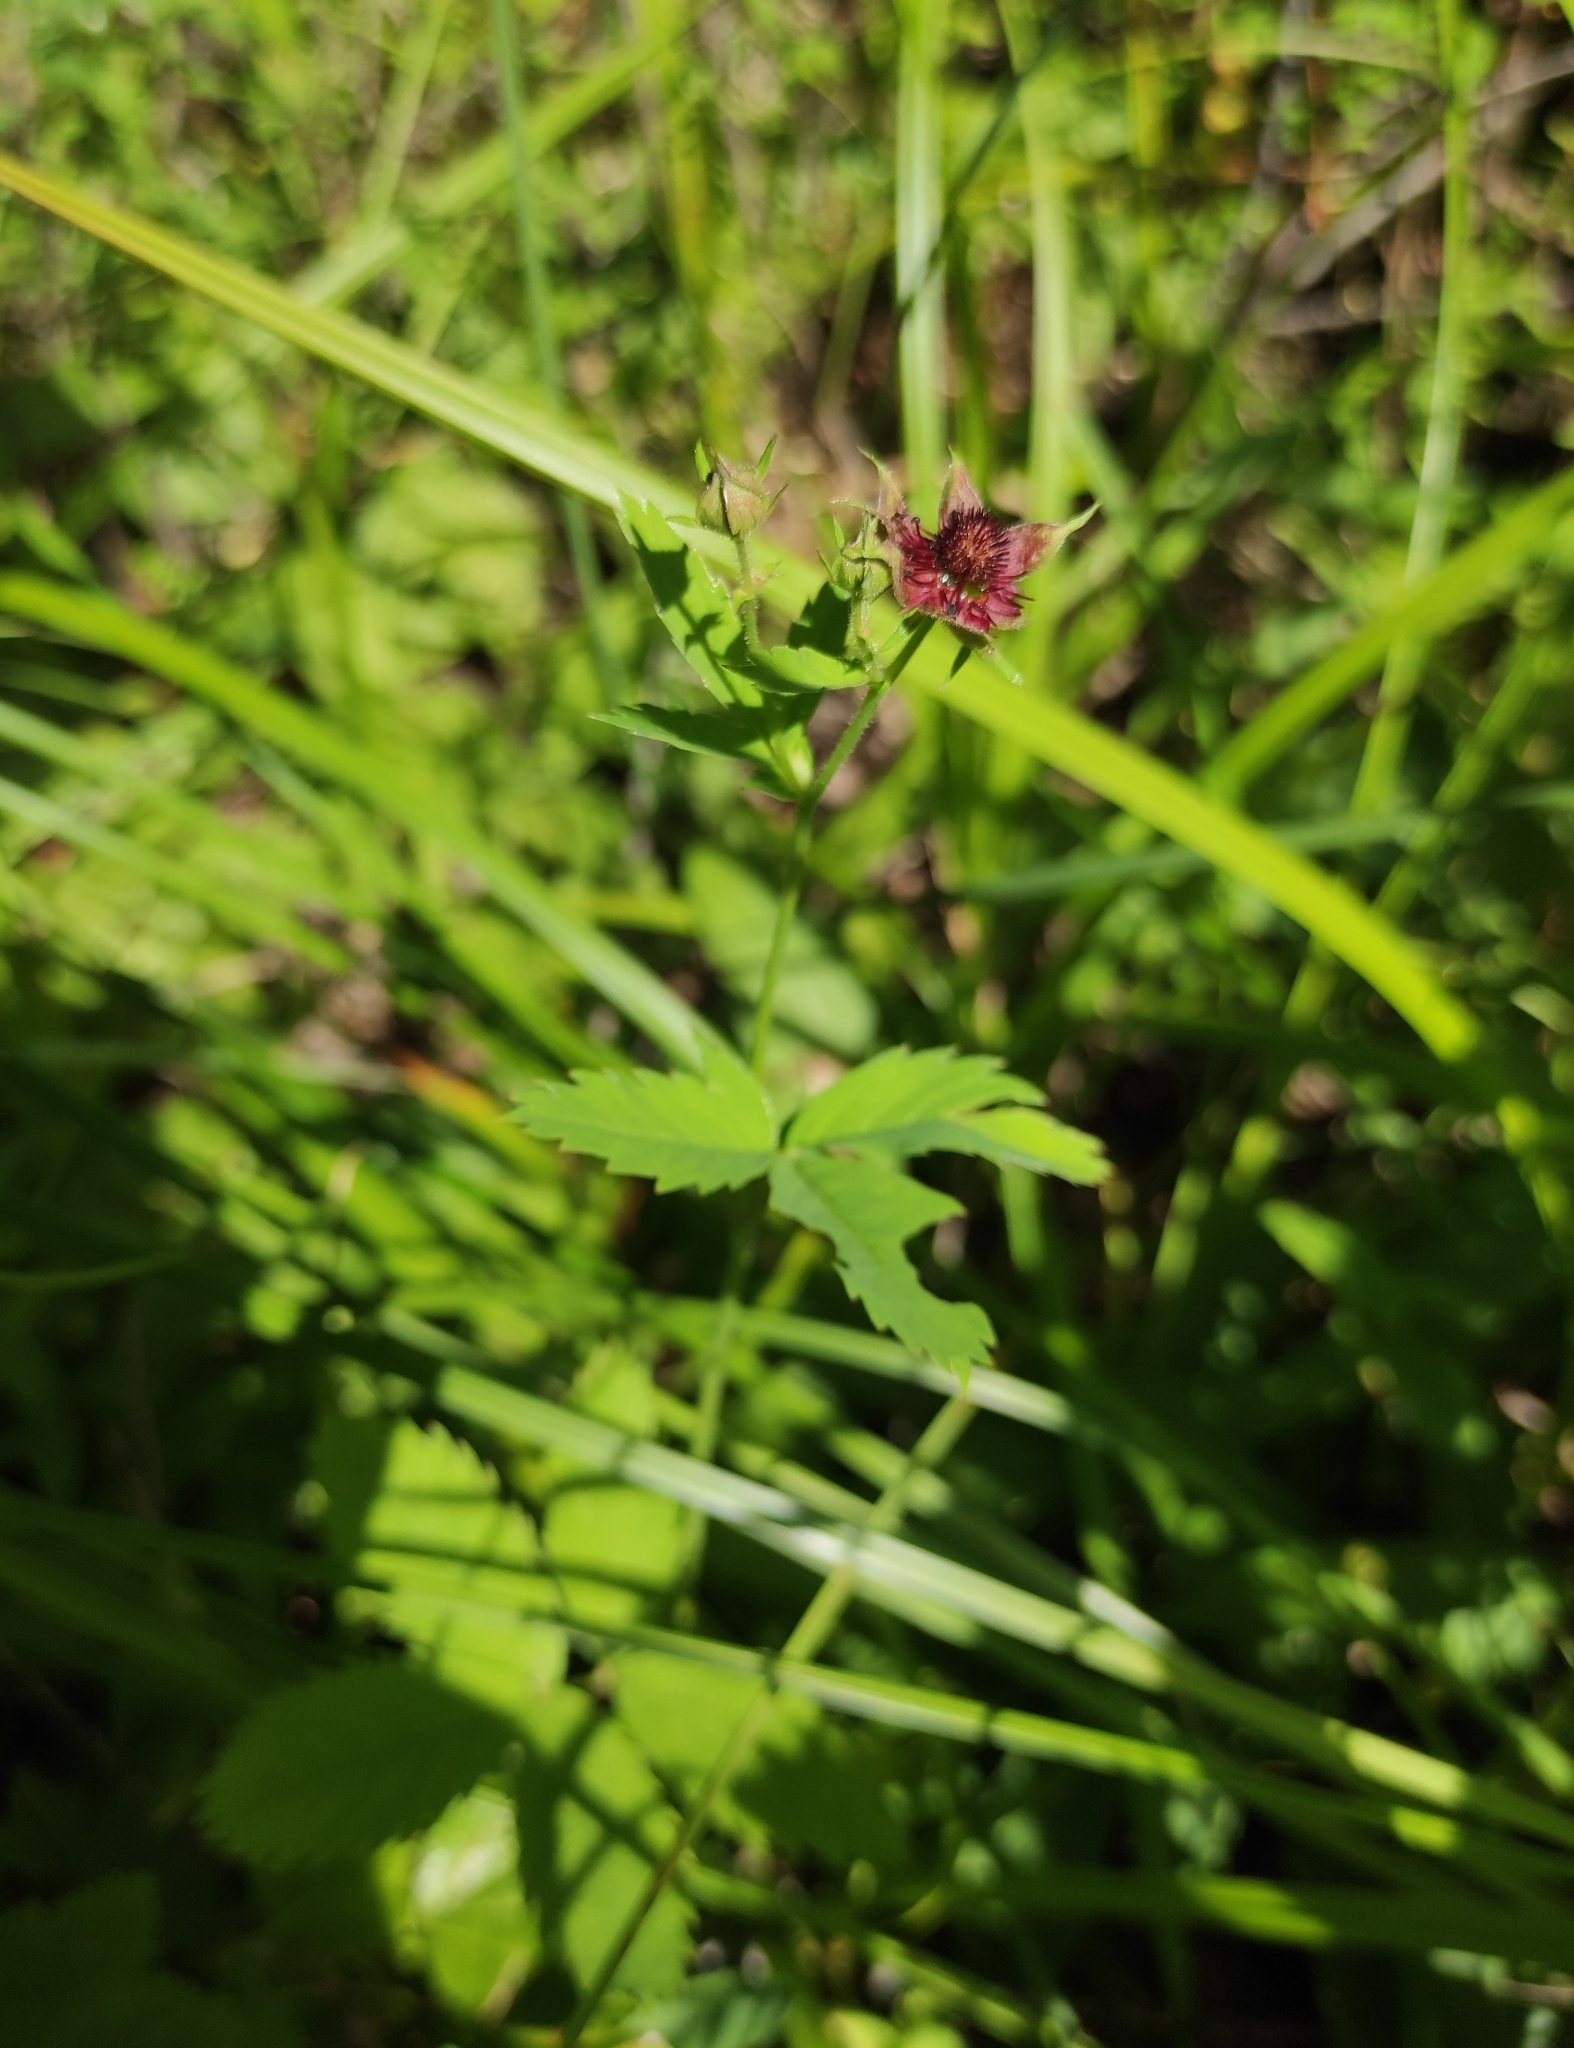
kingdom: Plantae
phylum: Tracheophyta
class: Magnoliopsida
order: Rosales
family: Rosaceae
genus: Comarum
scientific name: Comarum palustre
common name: Marsh cinquefoil
